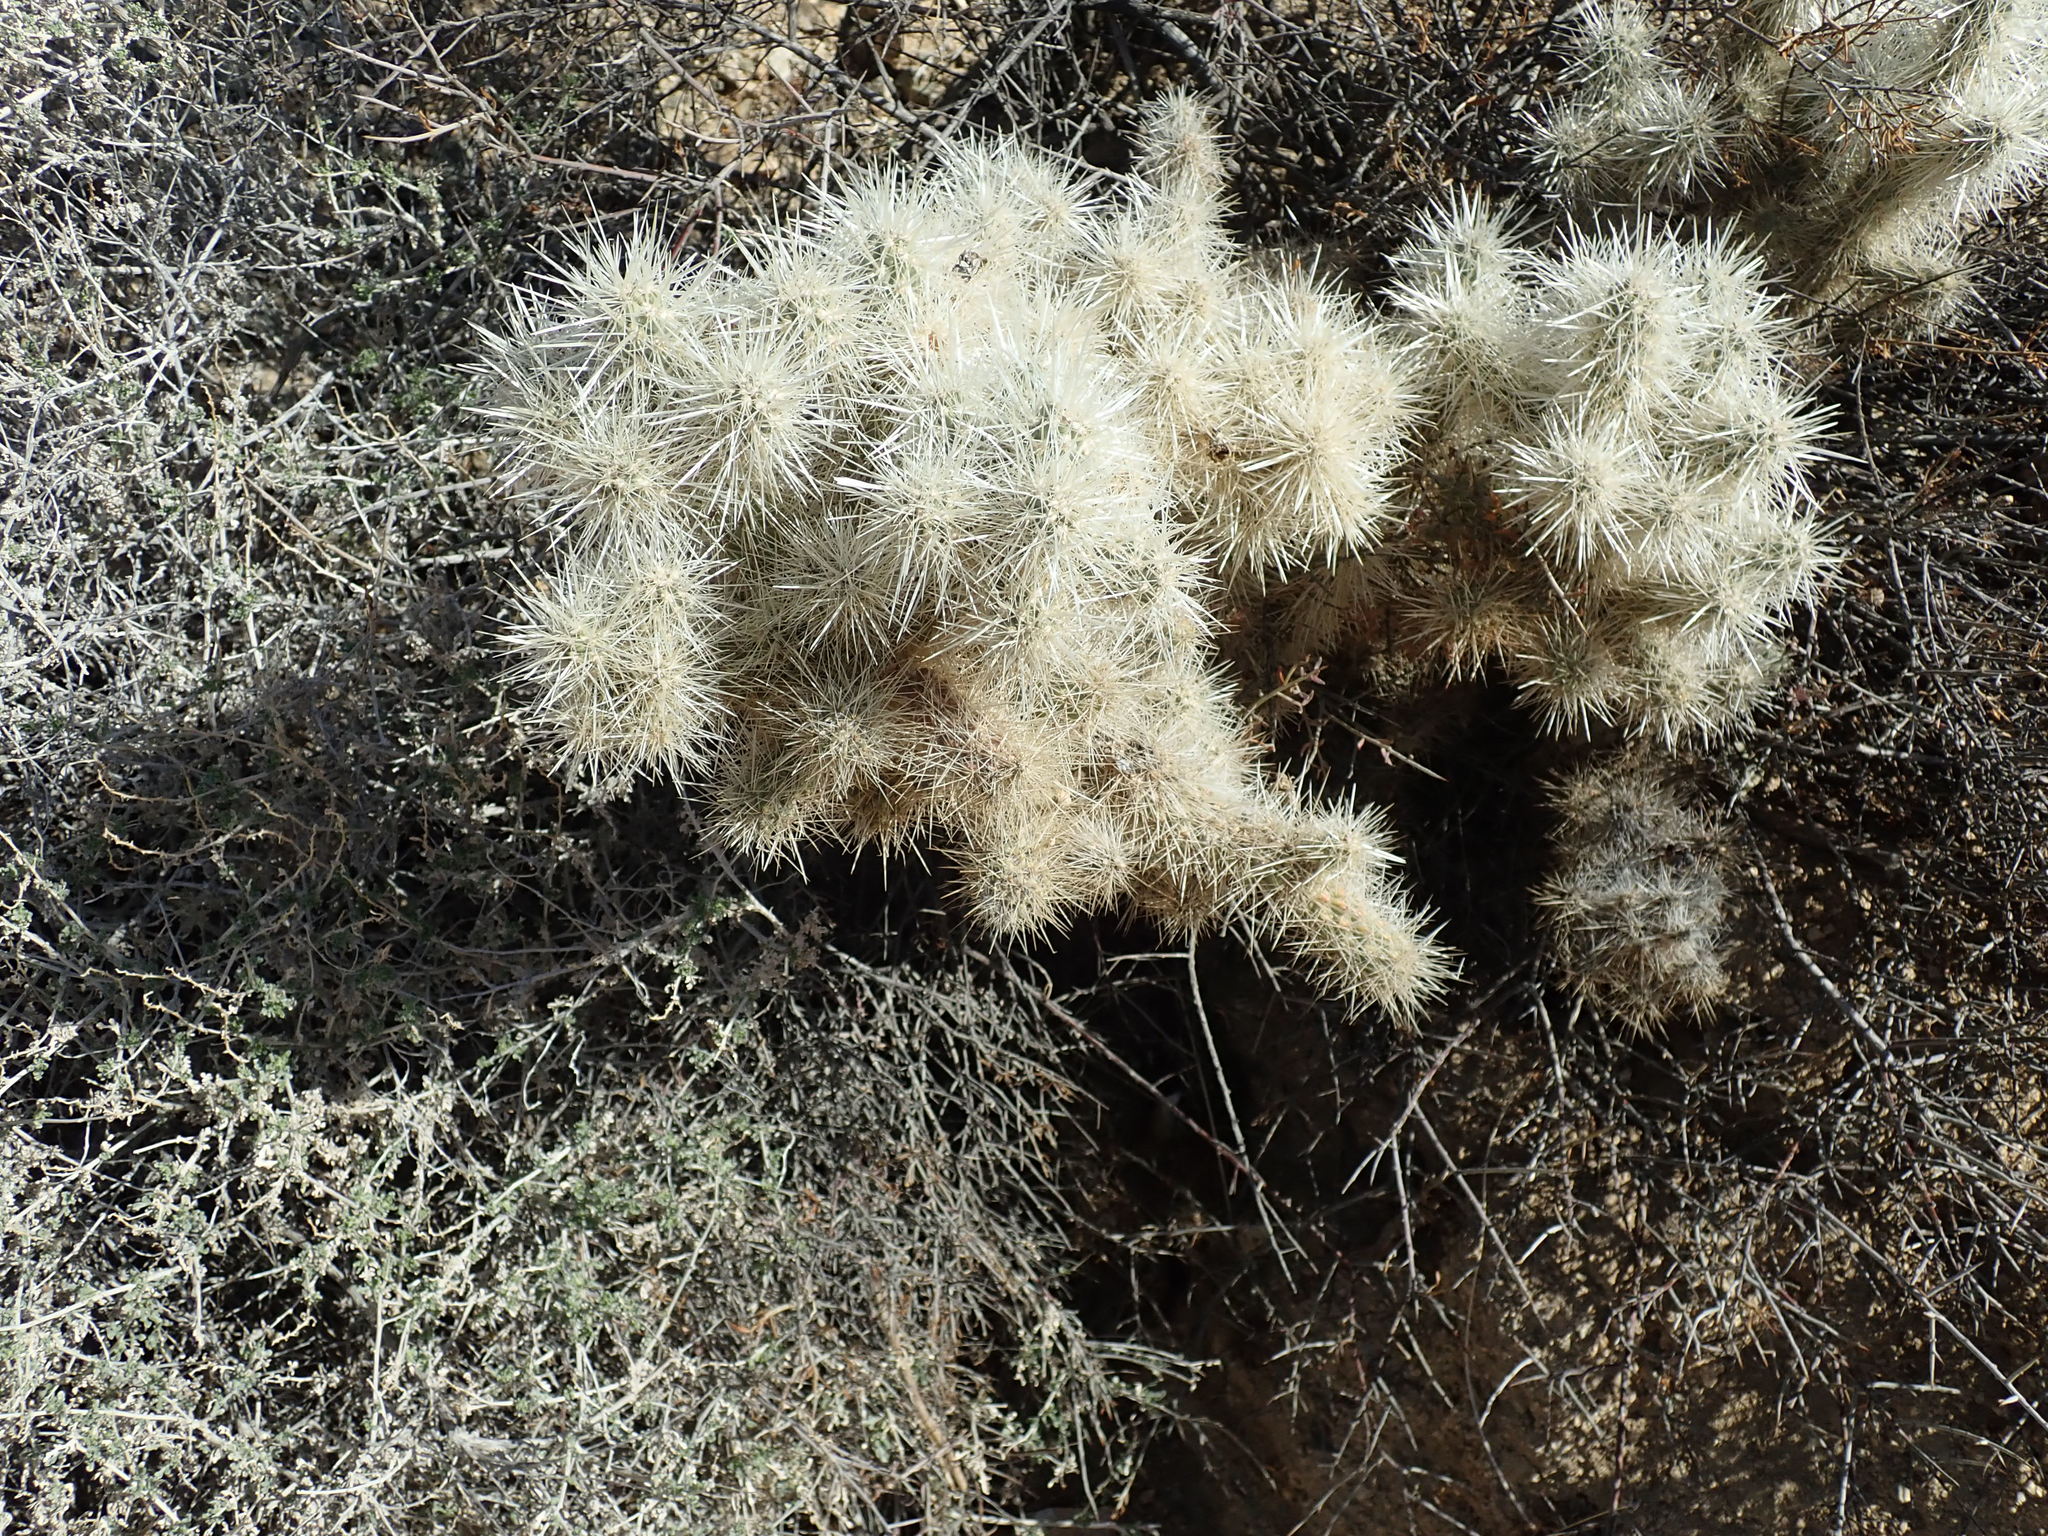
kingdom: Plantae
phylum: Tracheophyta
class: Magnoliopsida
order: Caryophyllales
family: Cactaceae
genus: Cylindropuntia
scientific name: Cylindropuntia echinocarpa
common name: Ground cholla
